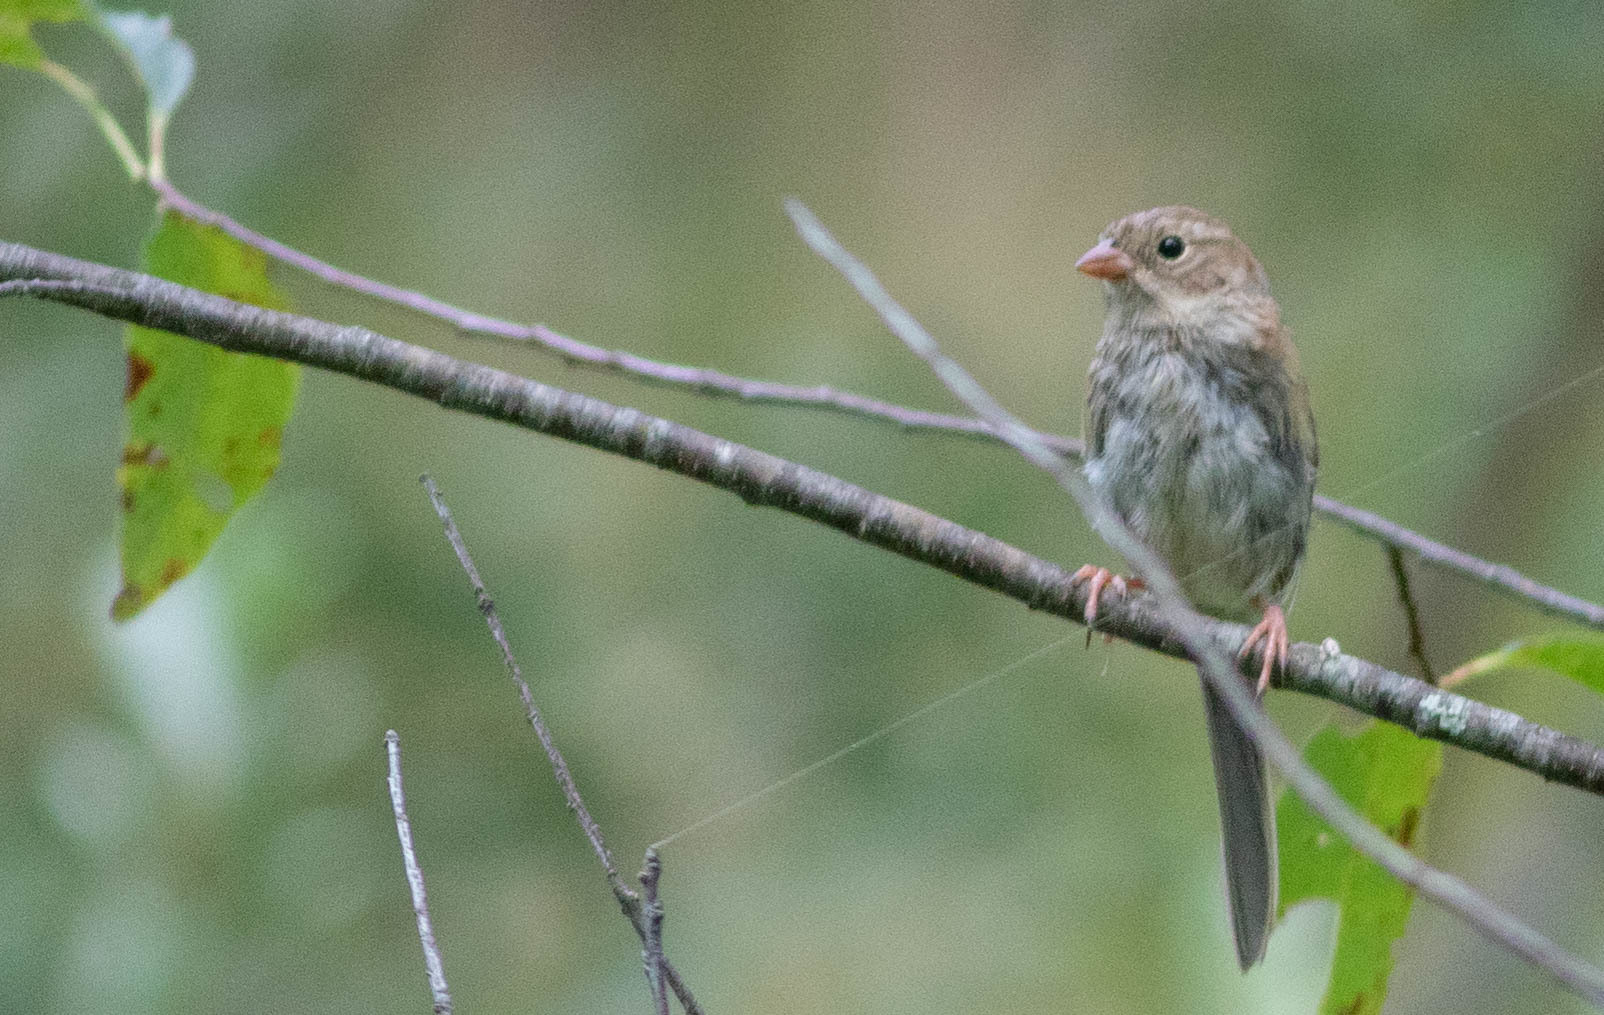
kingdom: Animalia
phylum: Chordata
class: Aves
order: Passeriformes
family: Passerellidae
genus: Spizella
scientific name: Spizella pusilla
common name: Field sparrow
